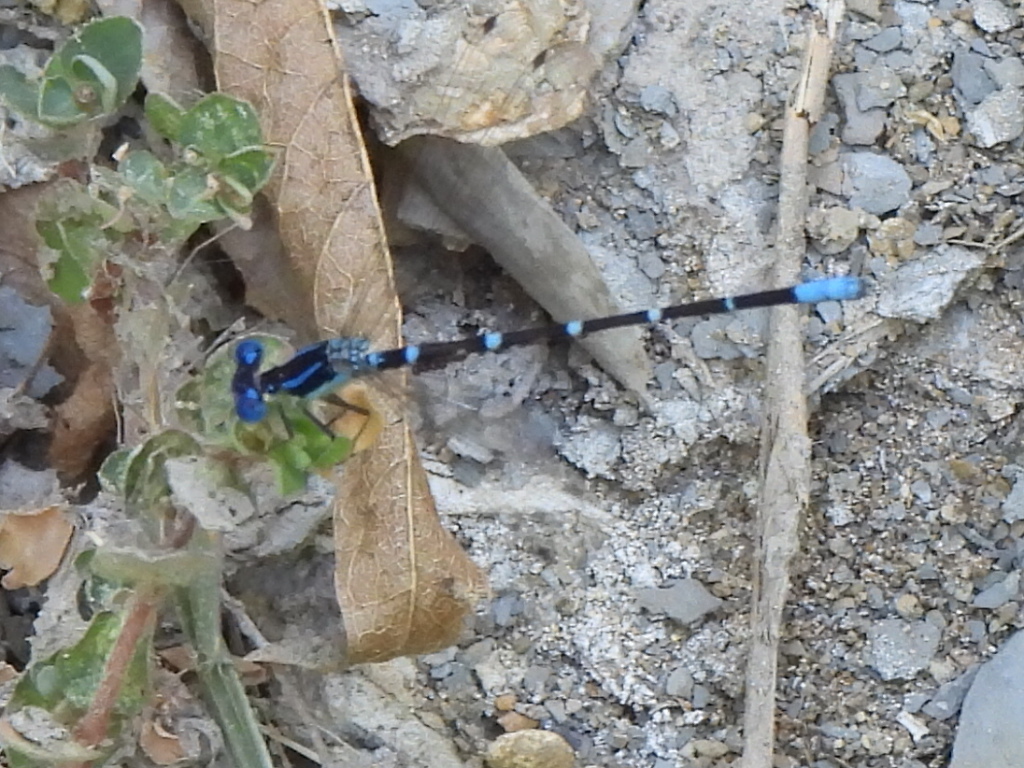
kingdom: Animalia
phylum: Arthropoda
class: Insecta
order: Odonata
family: Coenagrionidae
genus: Argia
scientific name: Argia sedula
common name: Blue-ringed dancer
